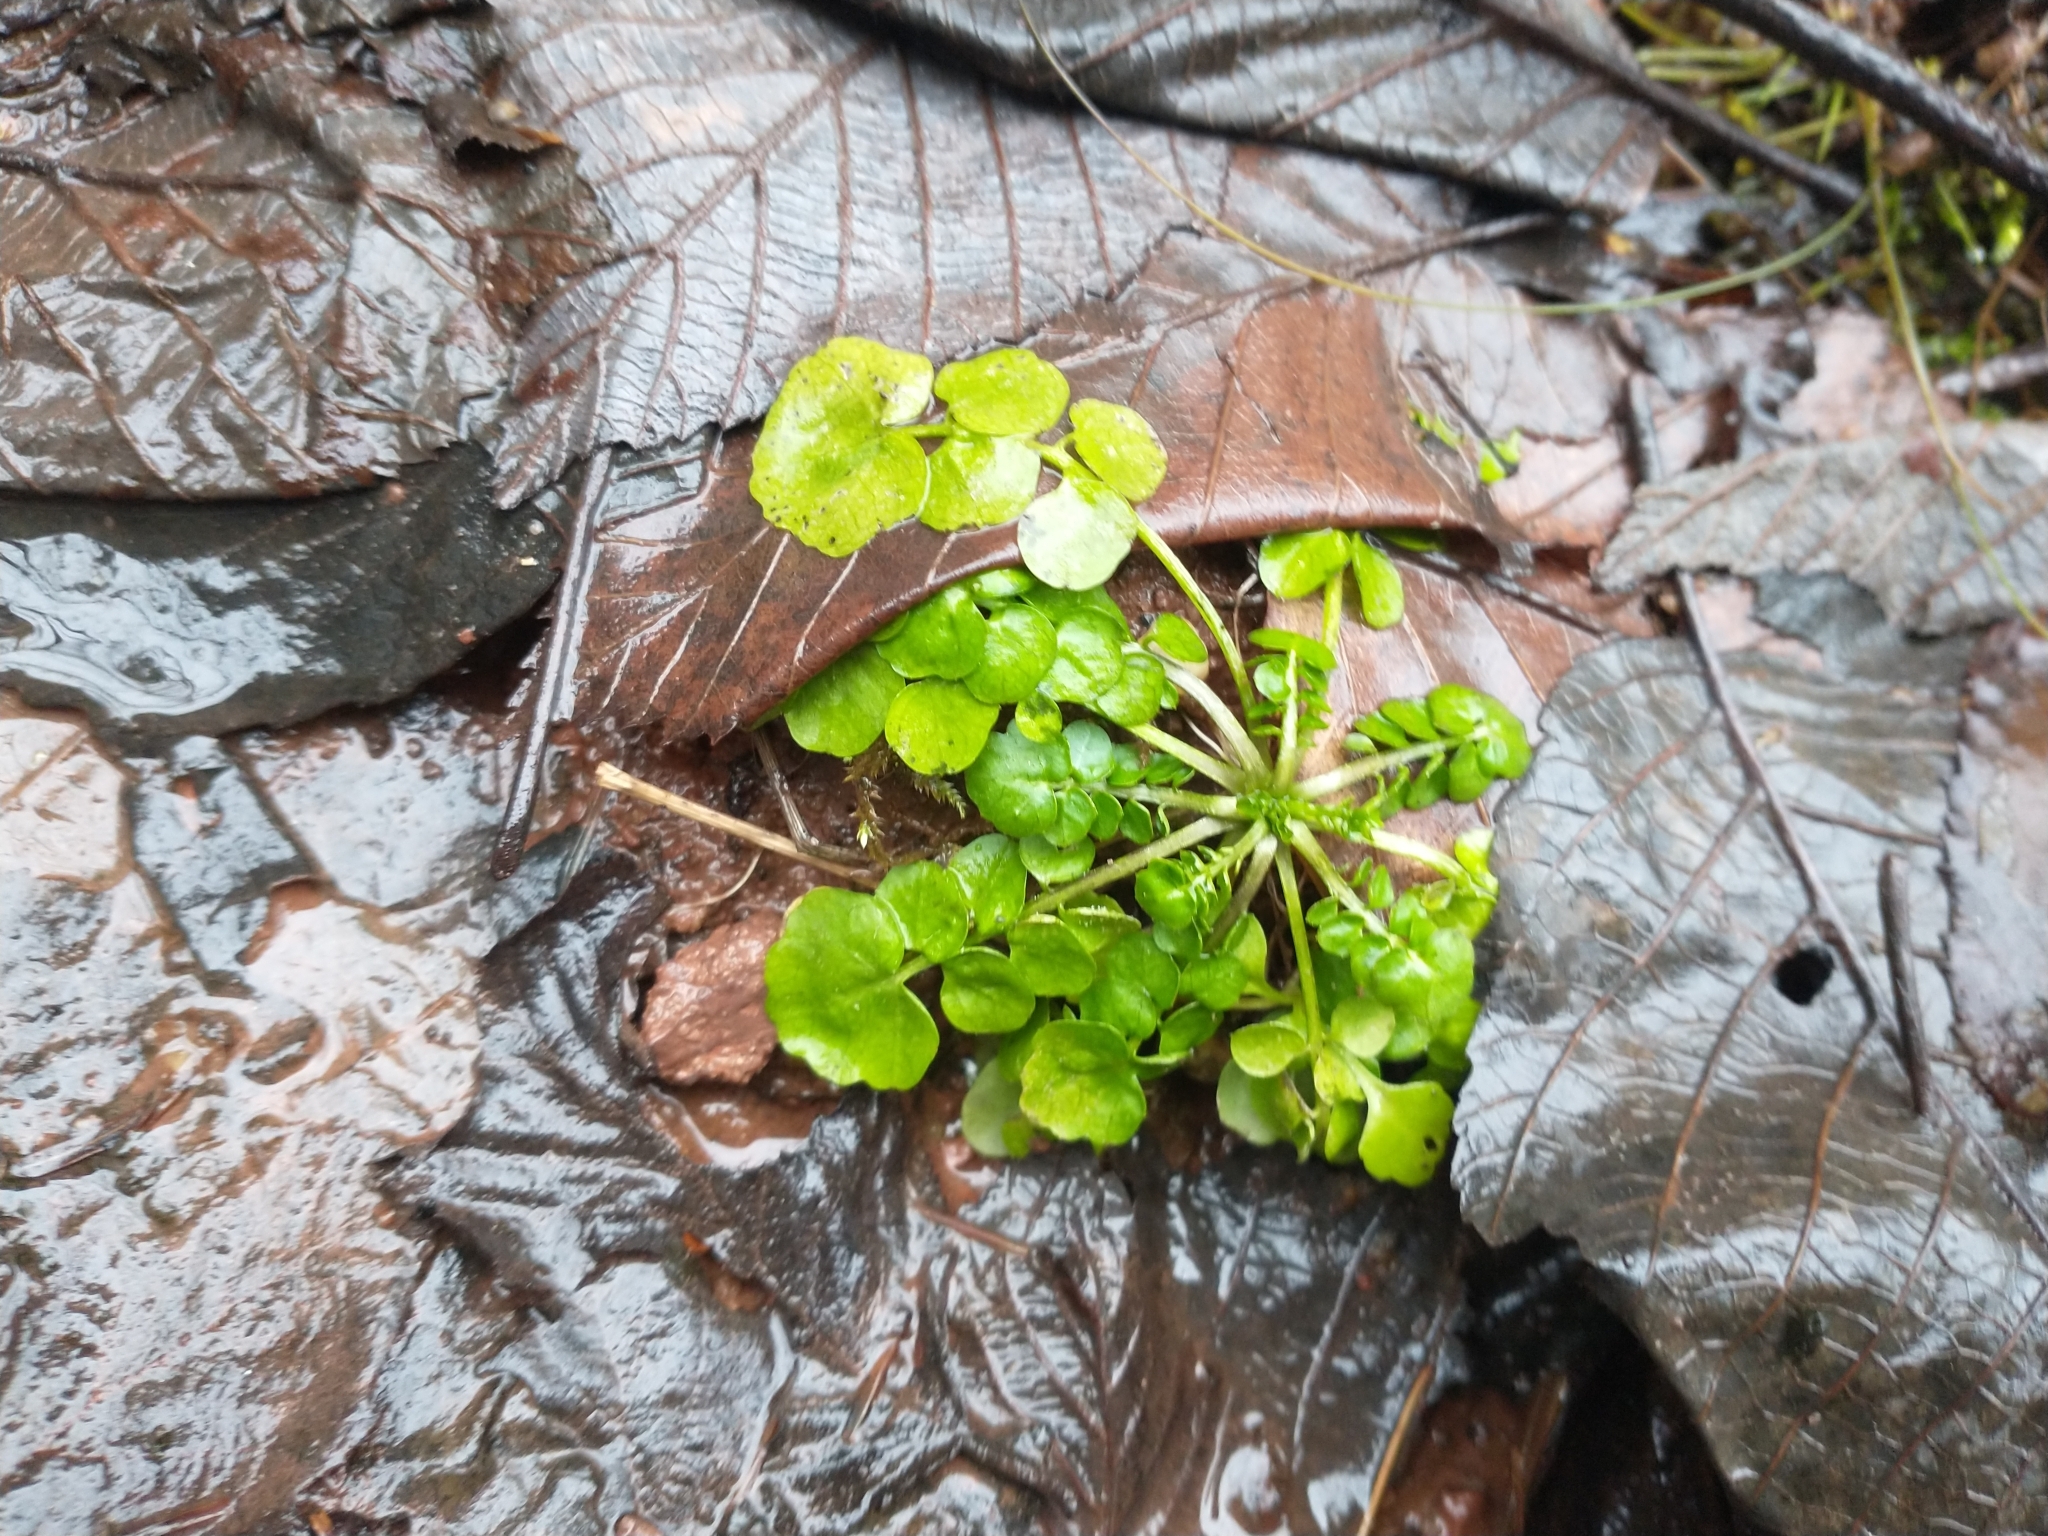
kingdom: Plantae
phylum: Tracheophyta
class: Magnoliopsida
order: Brassicales
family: Brassicaceae
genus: Cardamine
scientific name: Cardamine pensylvanica
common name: Pennsylvania bittercress
